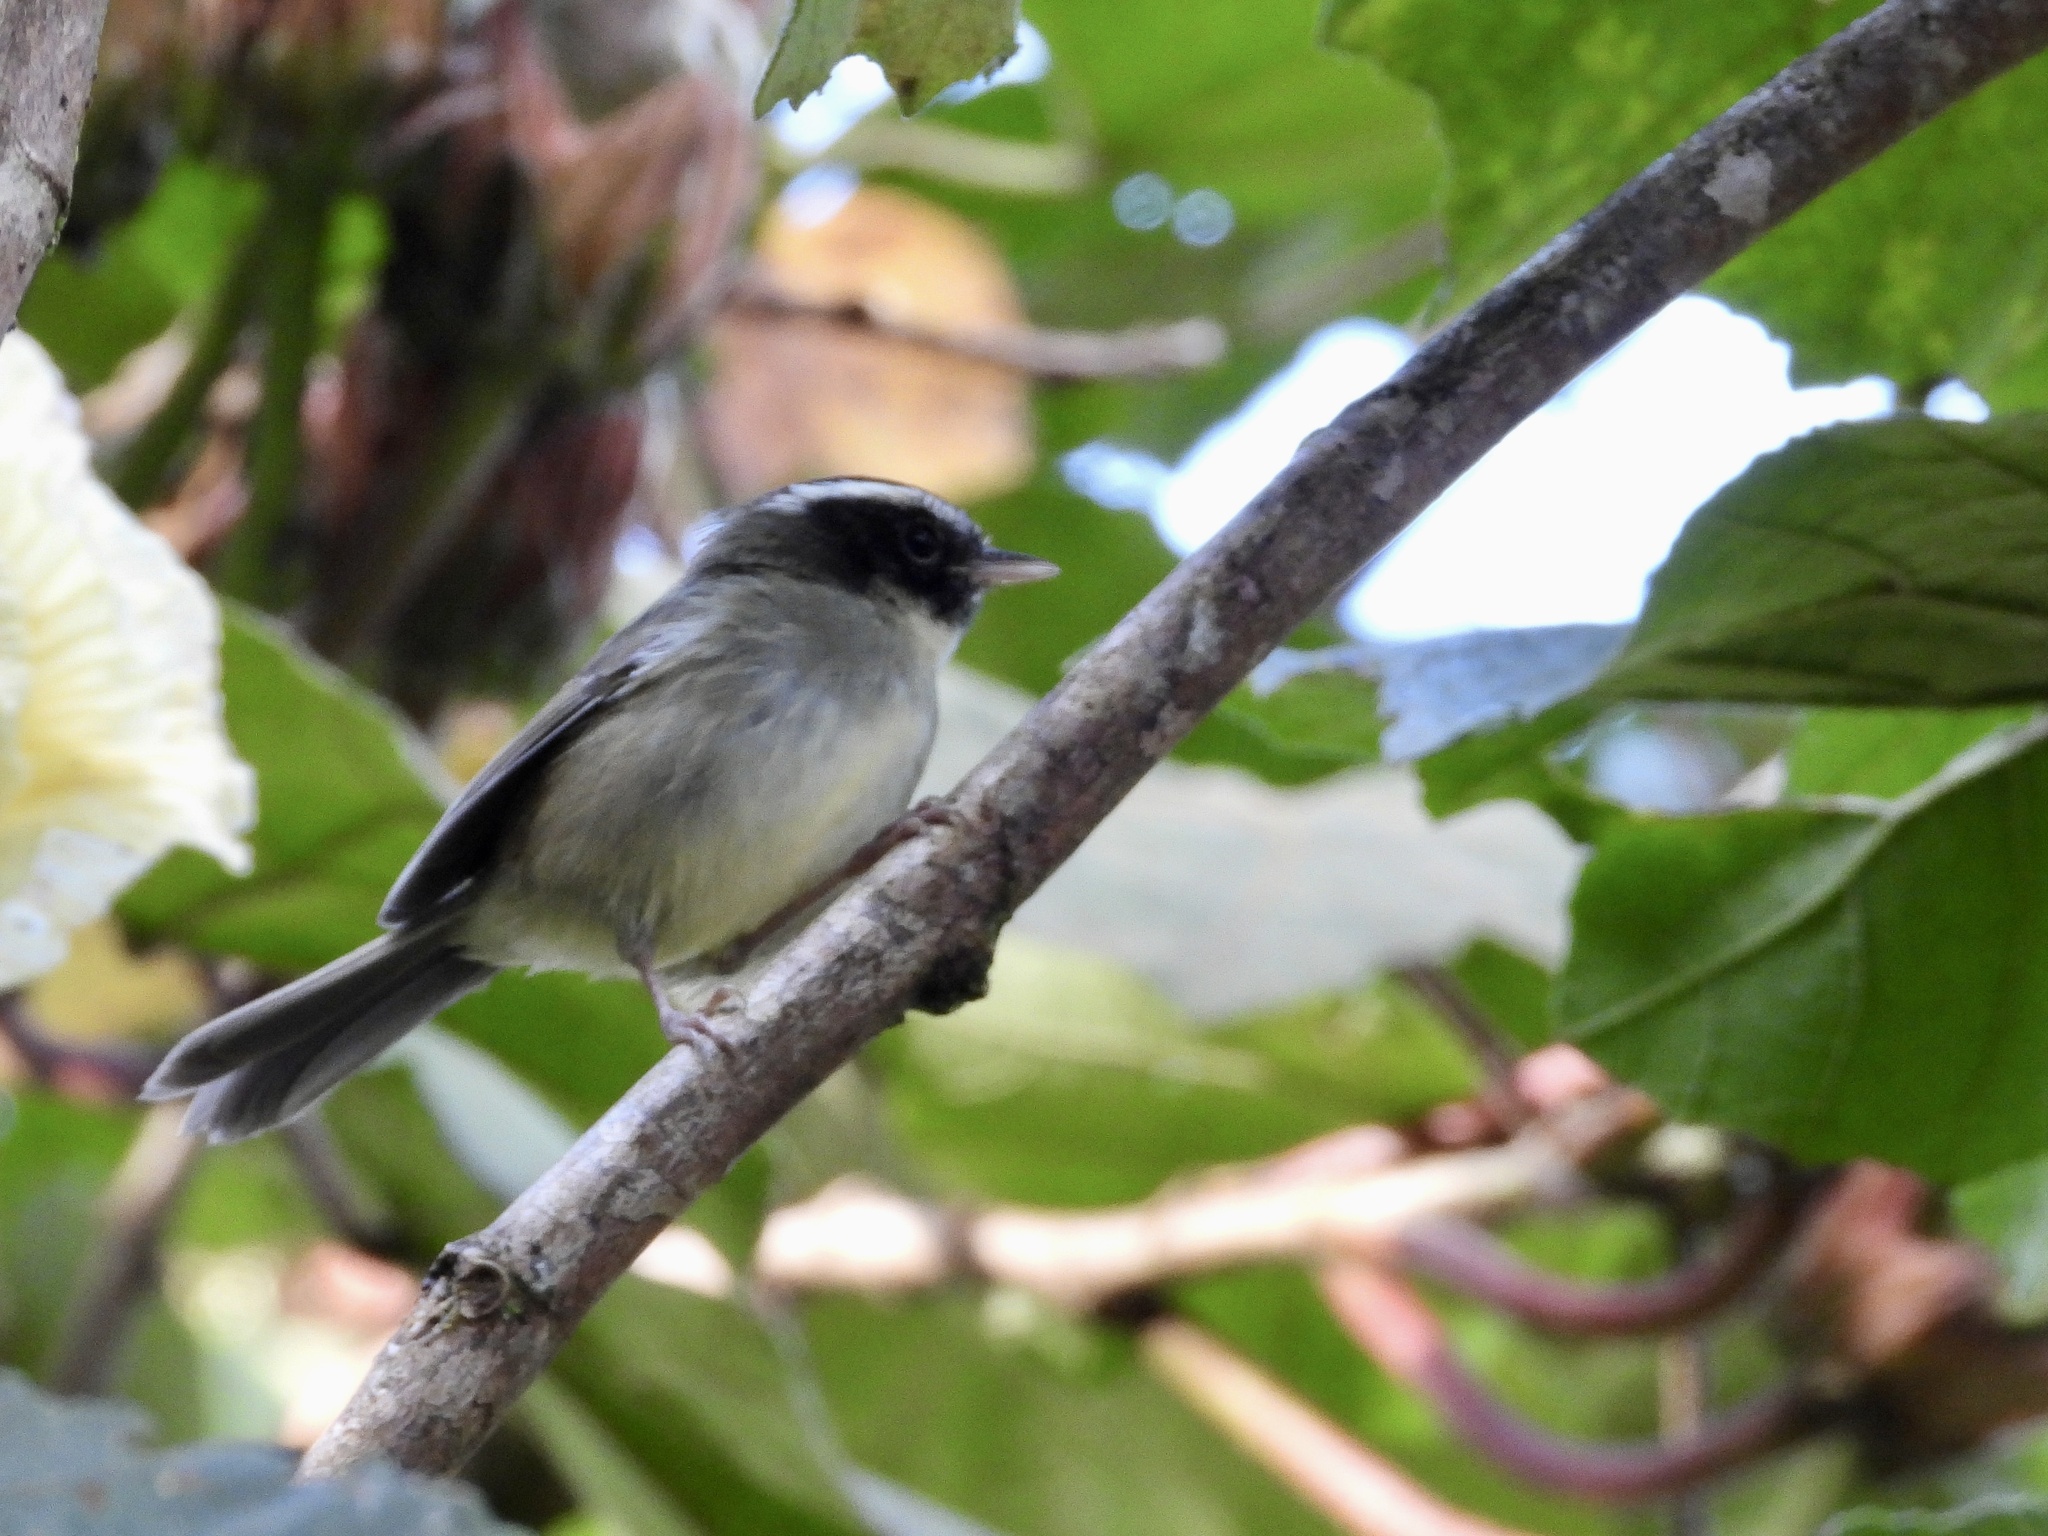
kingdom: Animalia
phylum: Chordata
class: Aves
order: Passeriformes
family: Parulidae
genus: Basileuterus
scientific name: Basileuterus melanogenys
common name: Black-cheeked warbler
